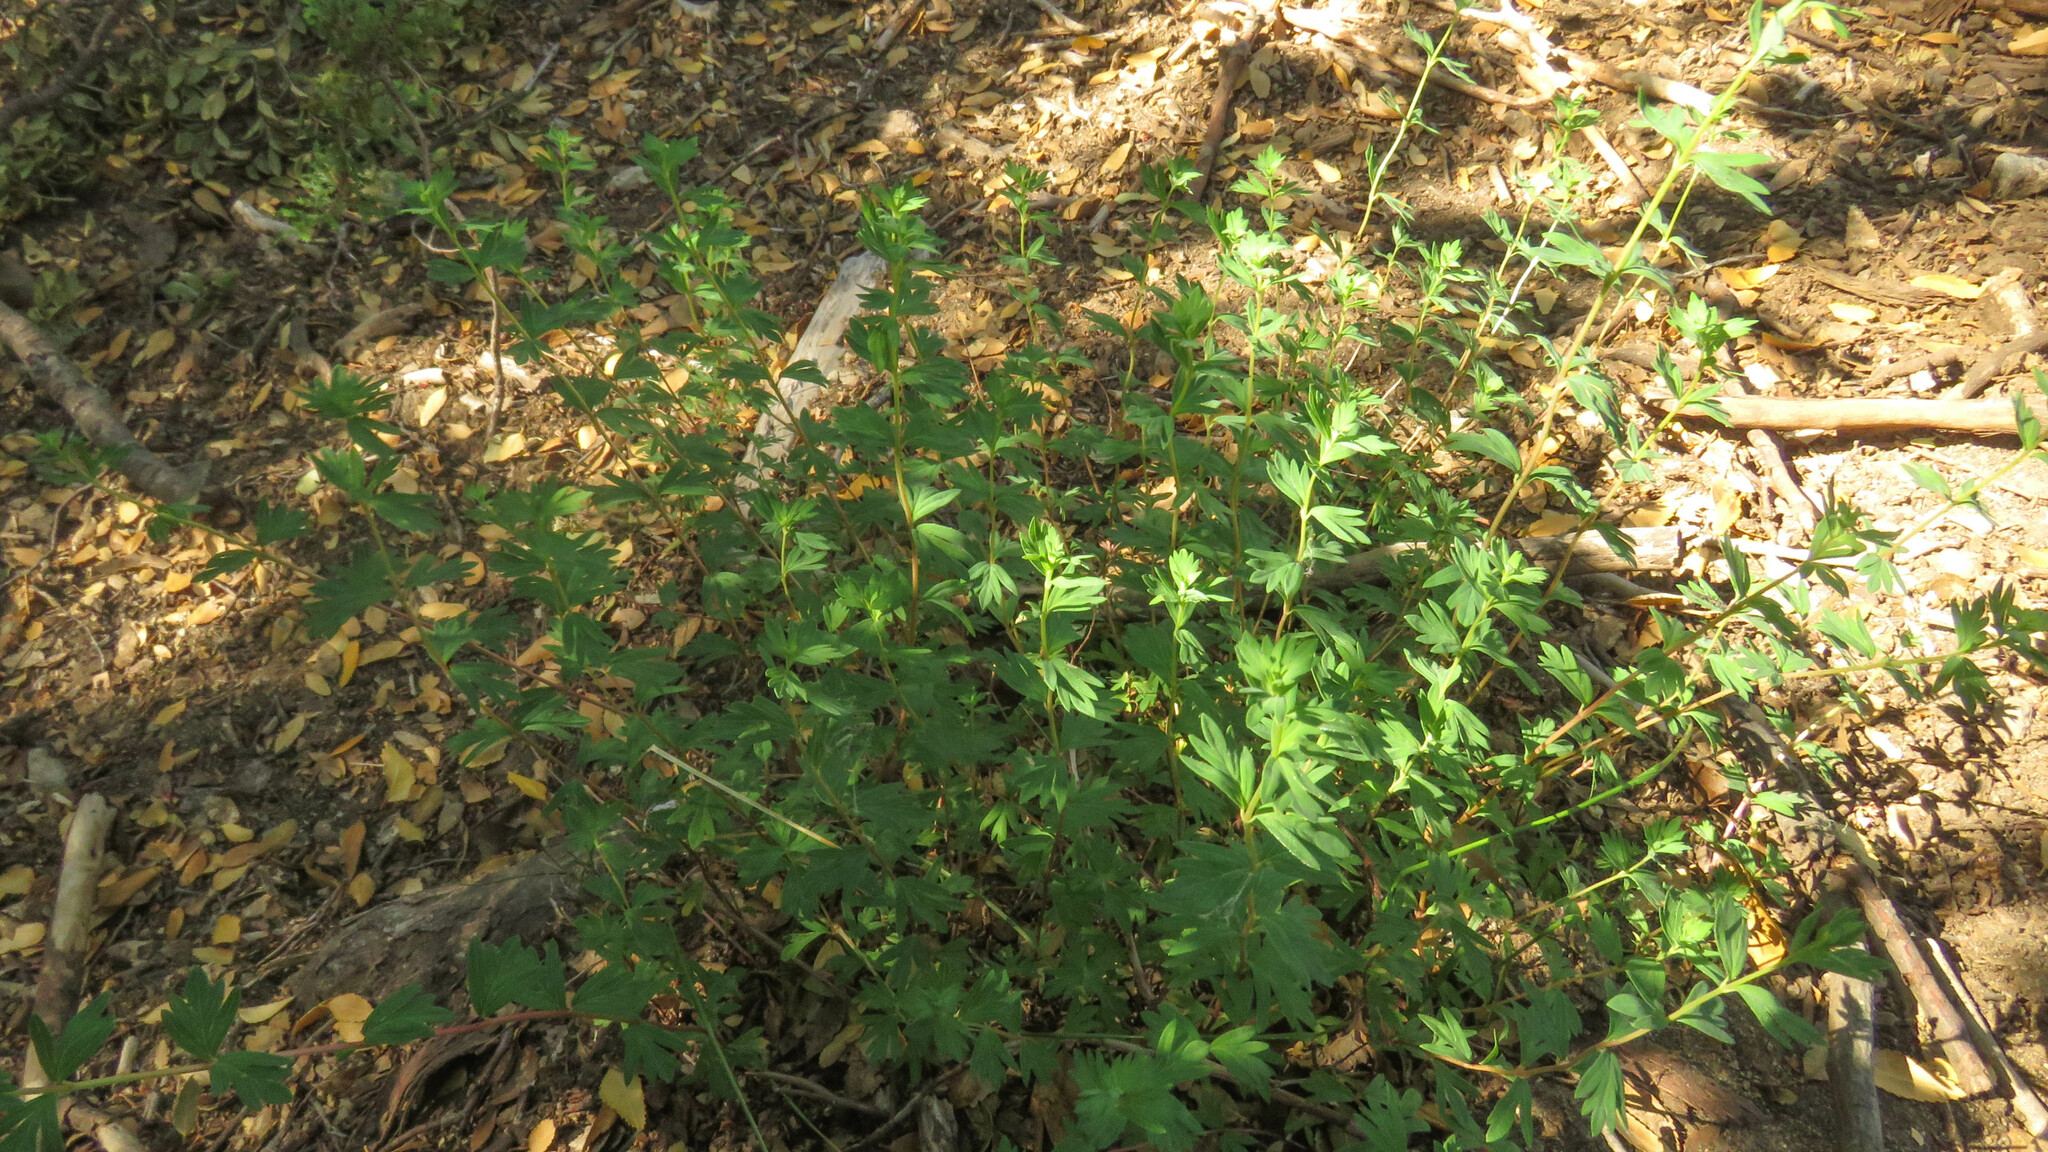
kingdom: Plantae
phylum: Tracheophyta
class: Magnoliopsida
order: Geraniales
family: Vivianiaceae
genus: Wendtia
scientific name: Wendtia gracilis
